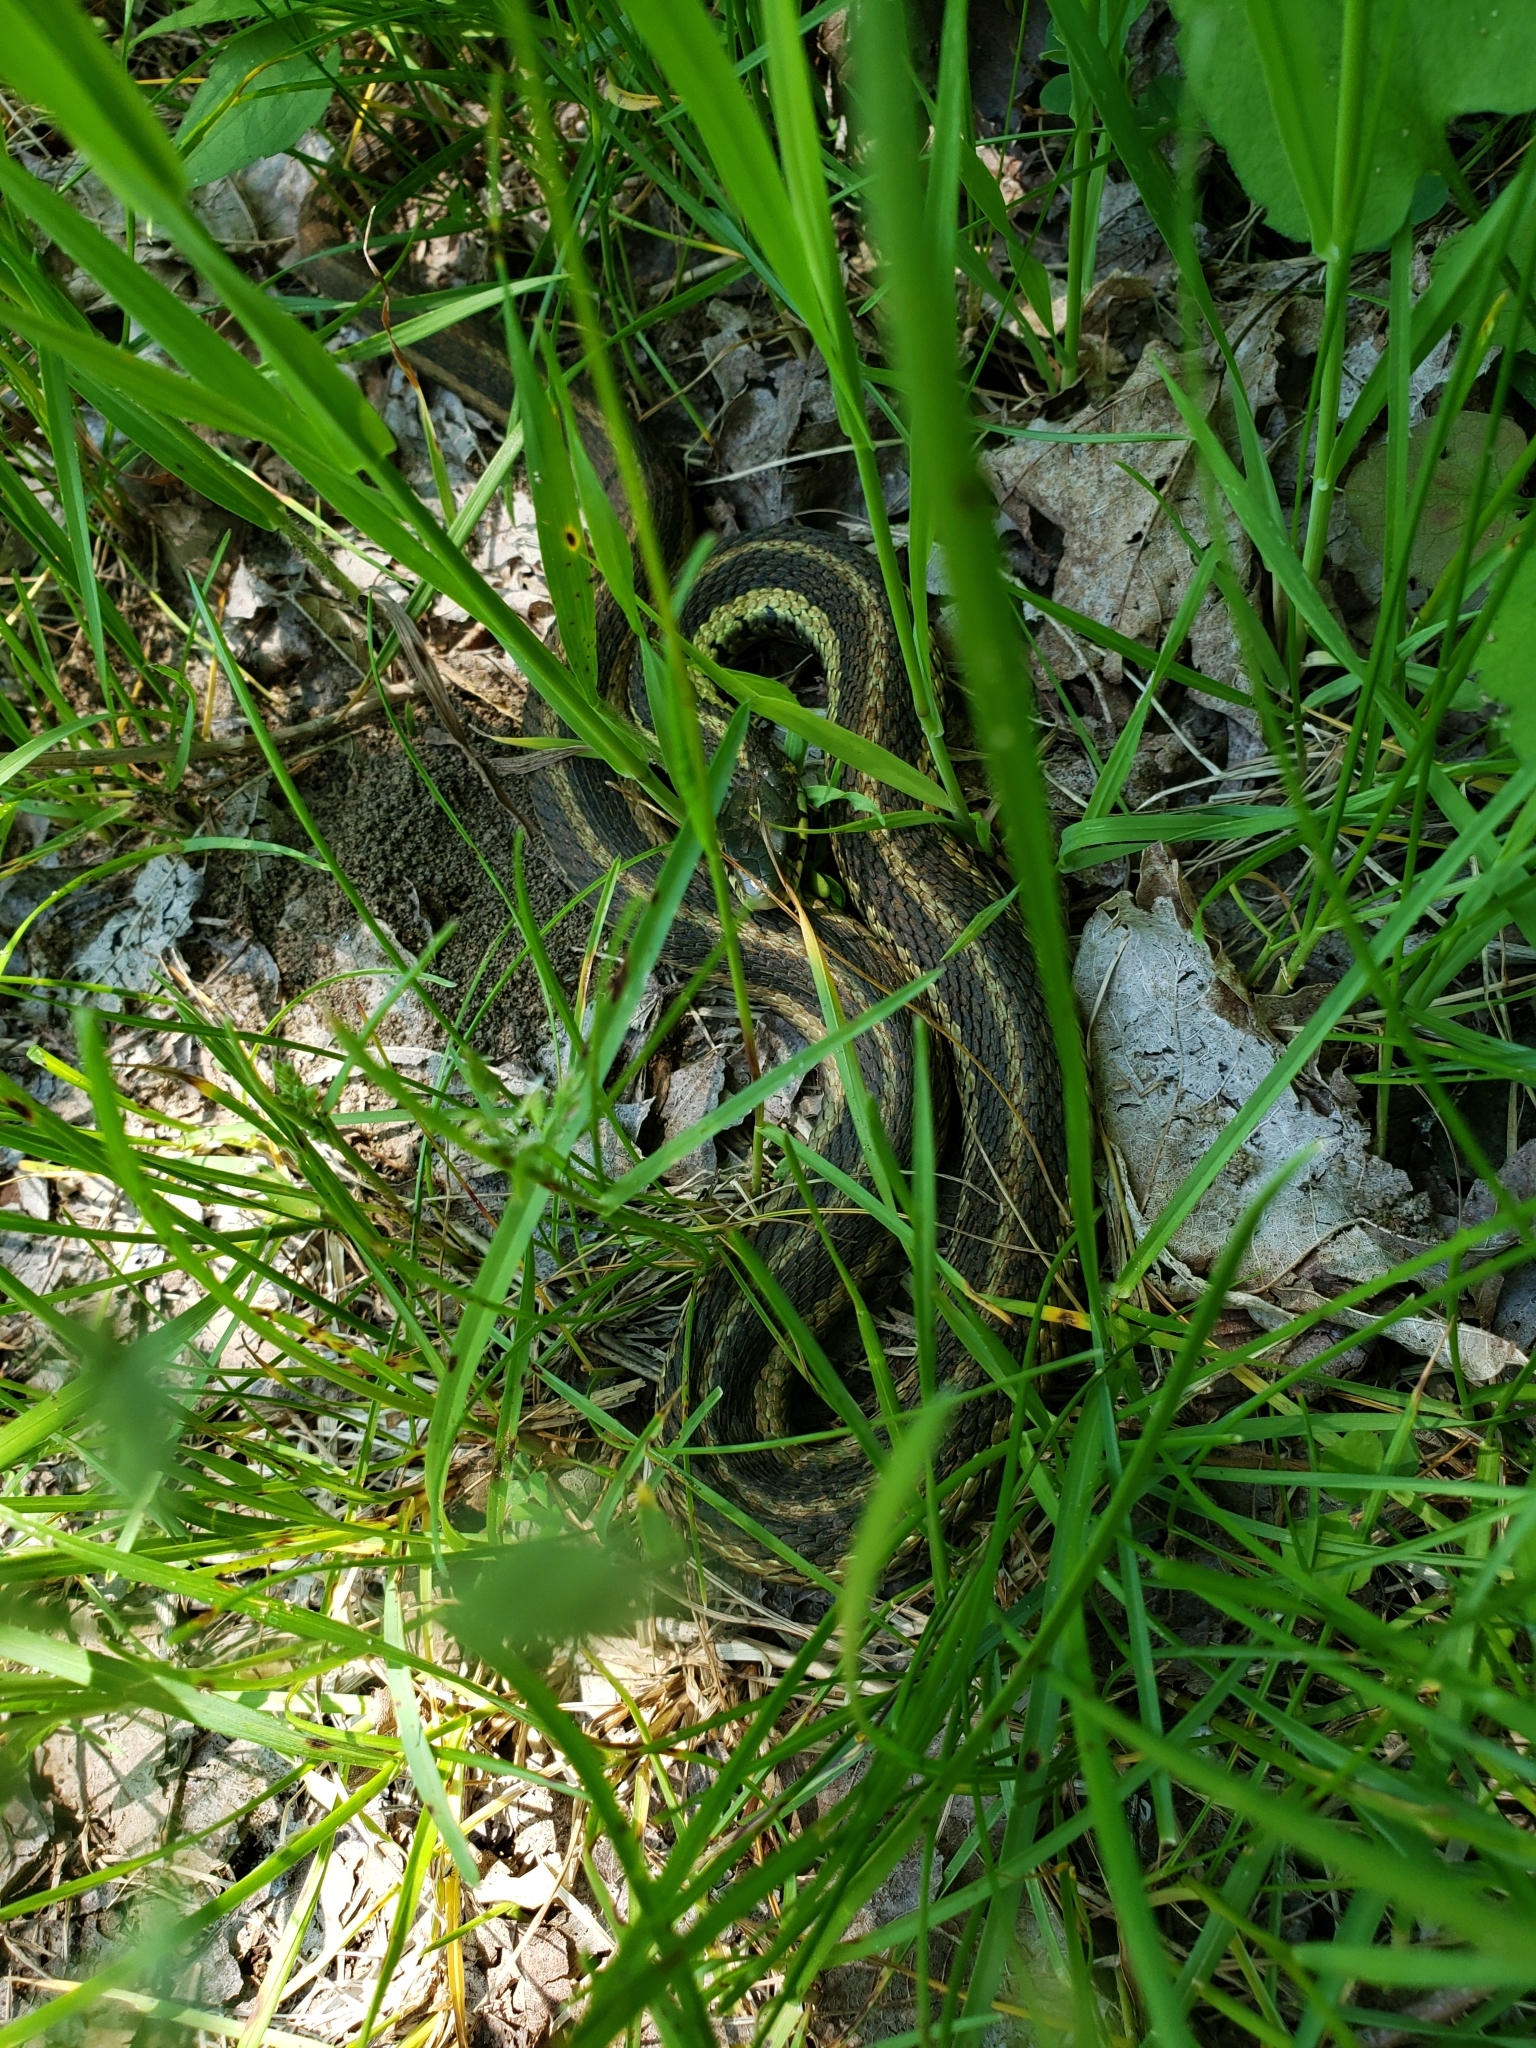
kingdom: Animalia
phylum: Chordata
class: Squamata
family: Colubridae
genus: Thamnophis
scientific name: Thamnophis sirtalis
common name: Common garter snake
